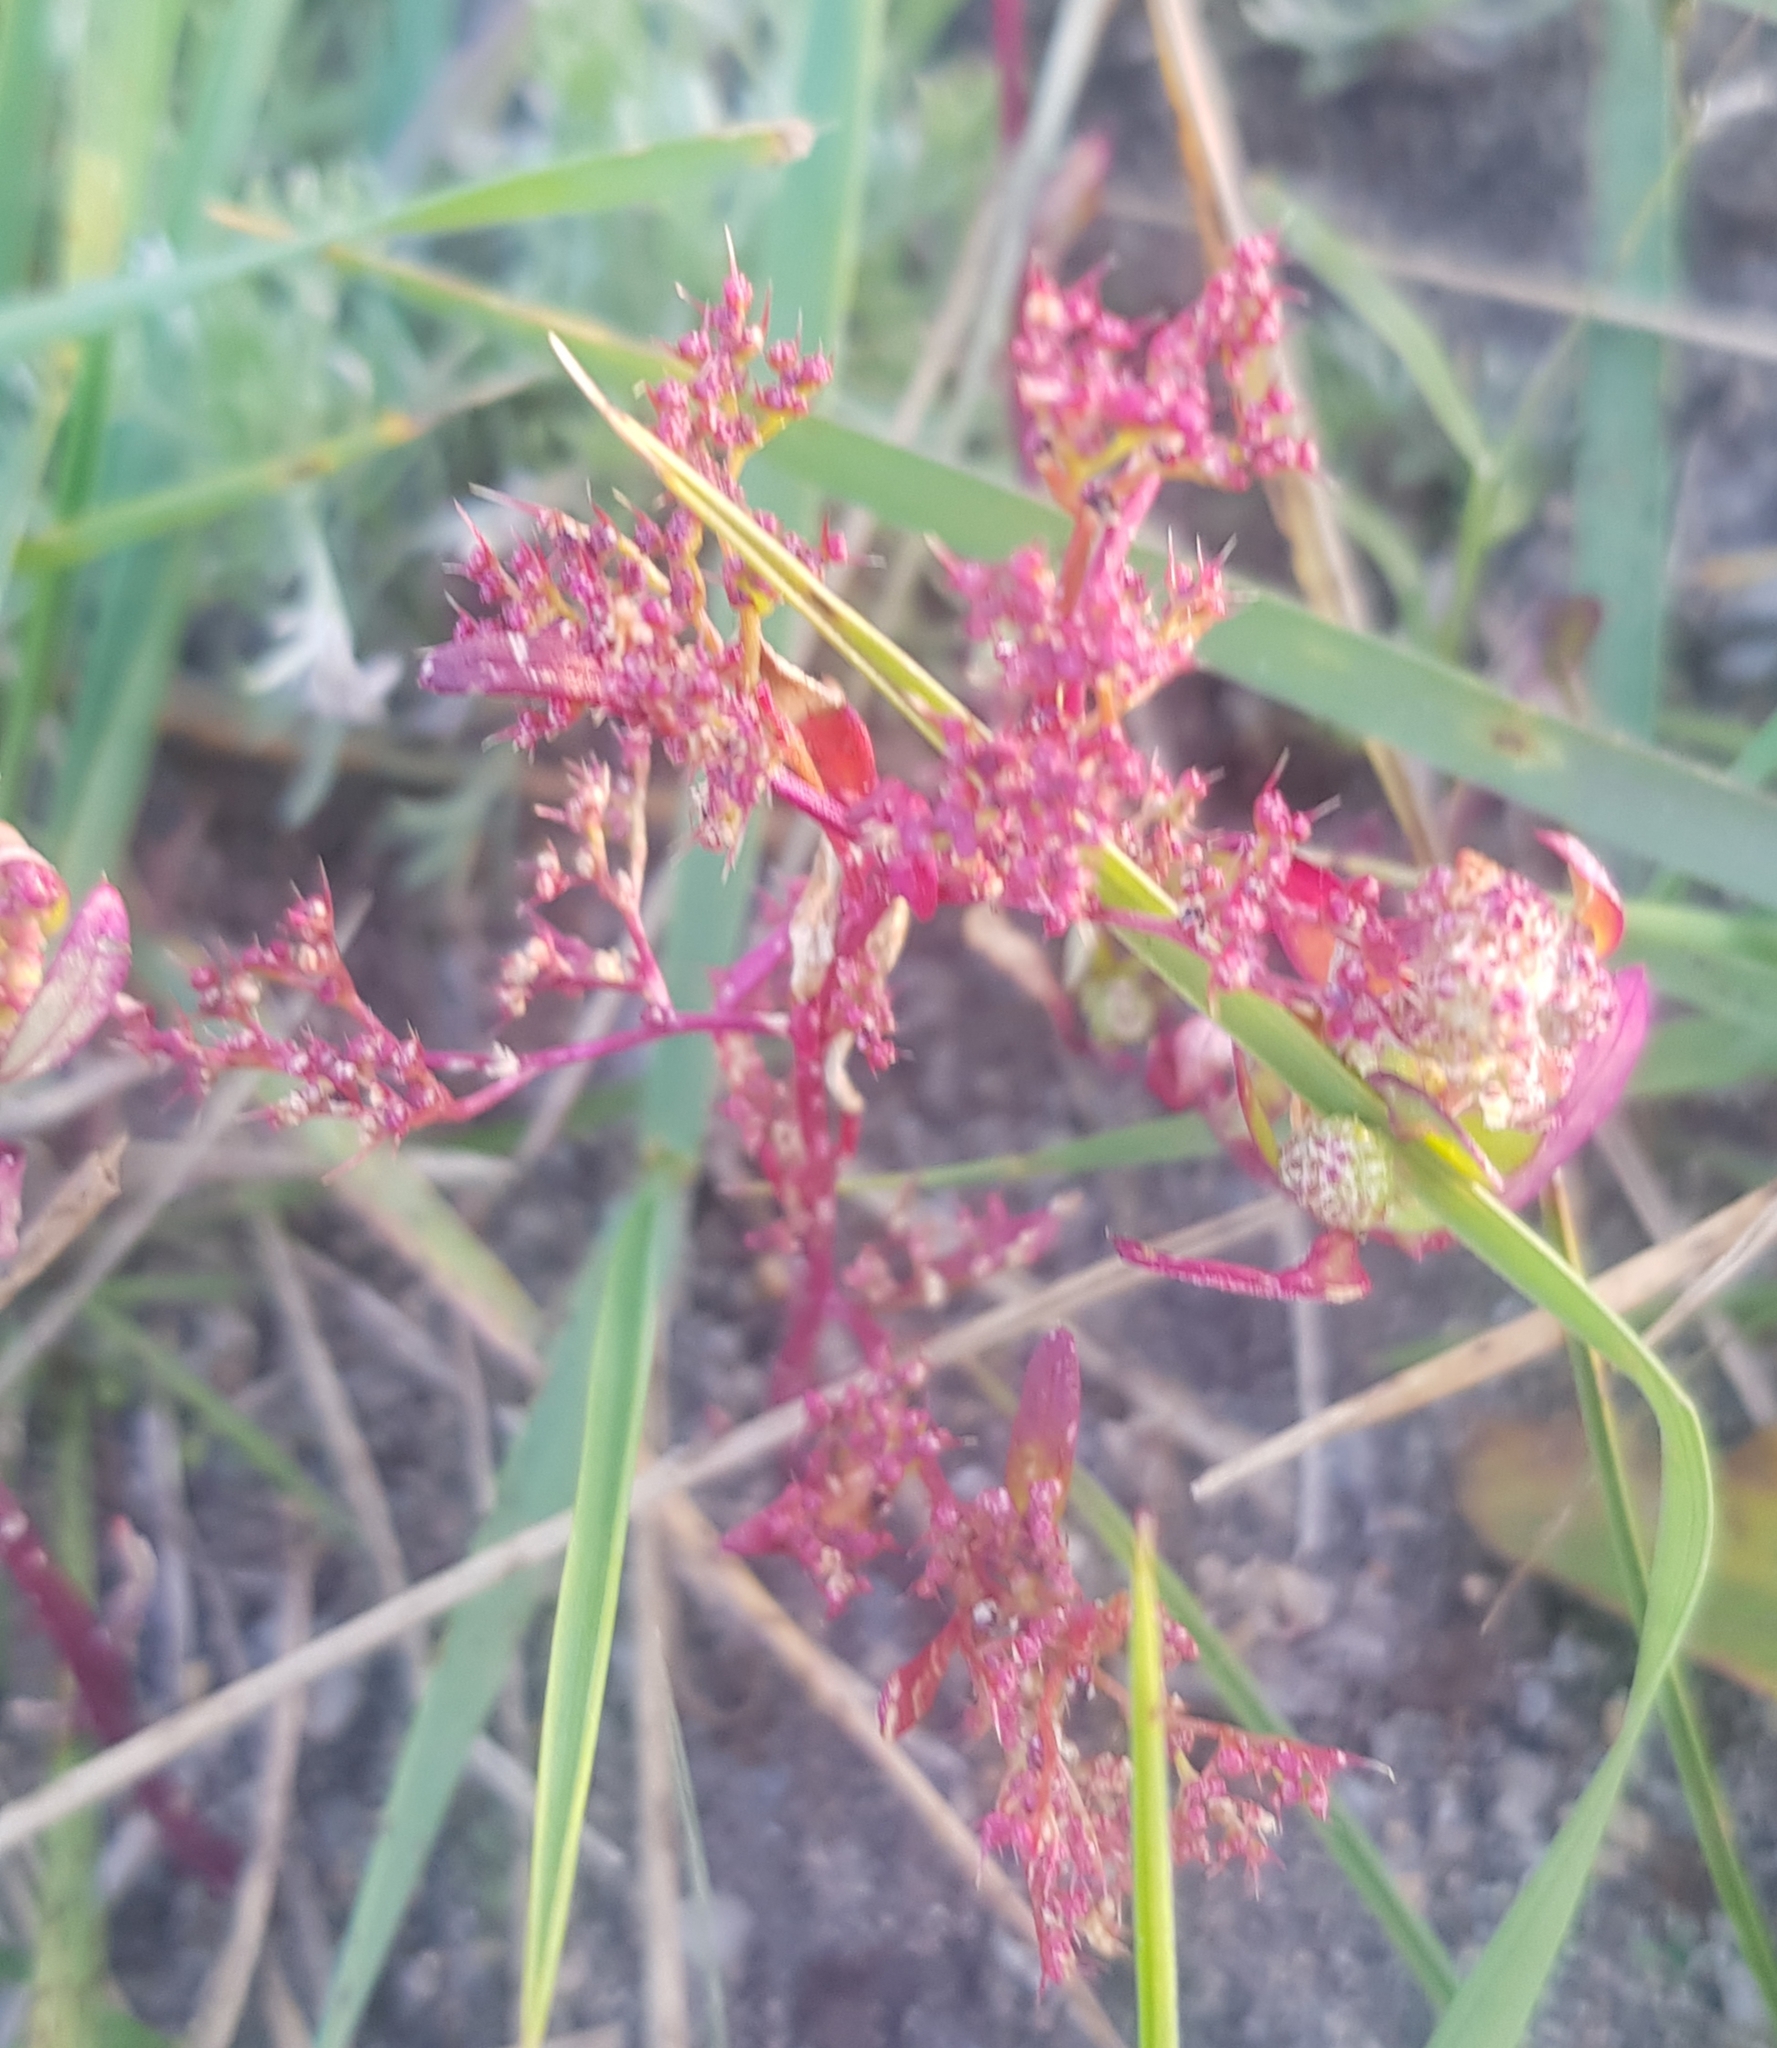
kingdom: Plantae
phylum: Tracheophyta
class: Magnoliopsida
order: Caryophyllales
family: Amaranthaceae
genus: Teloxys
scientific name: Teloxys aristata
